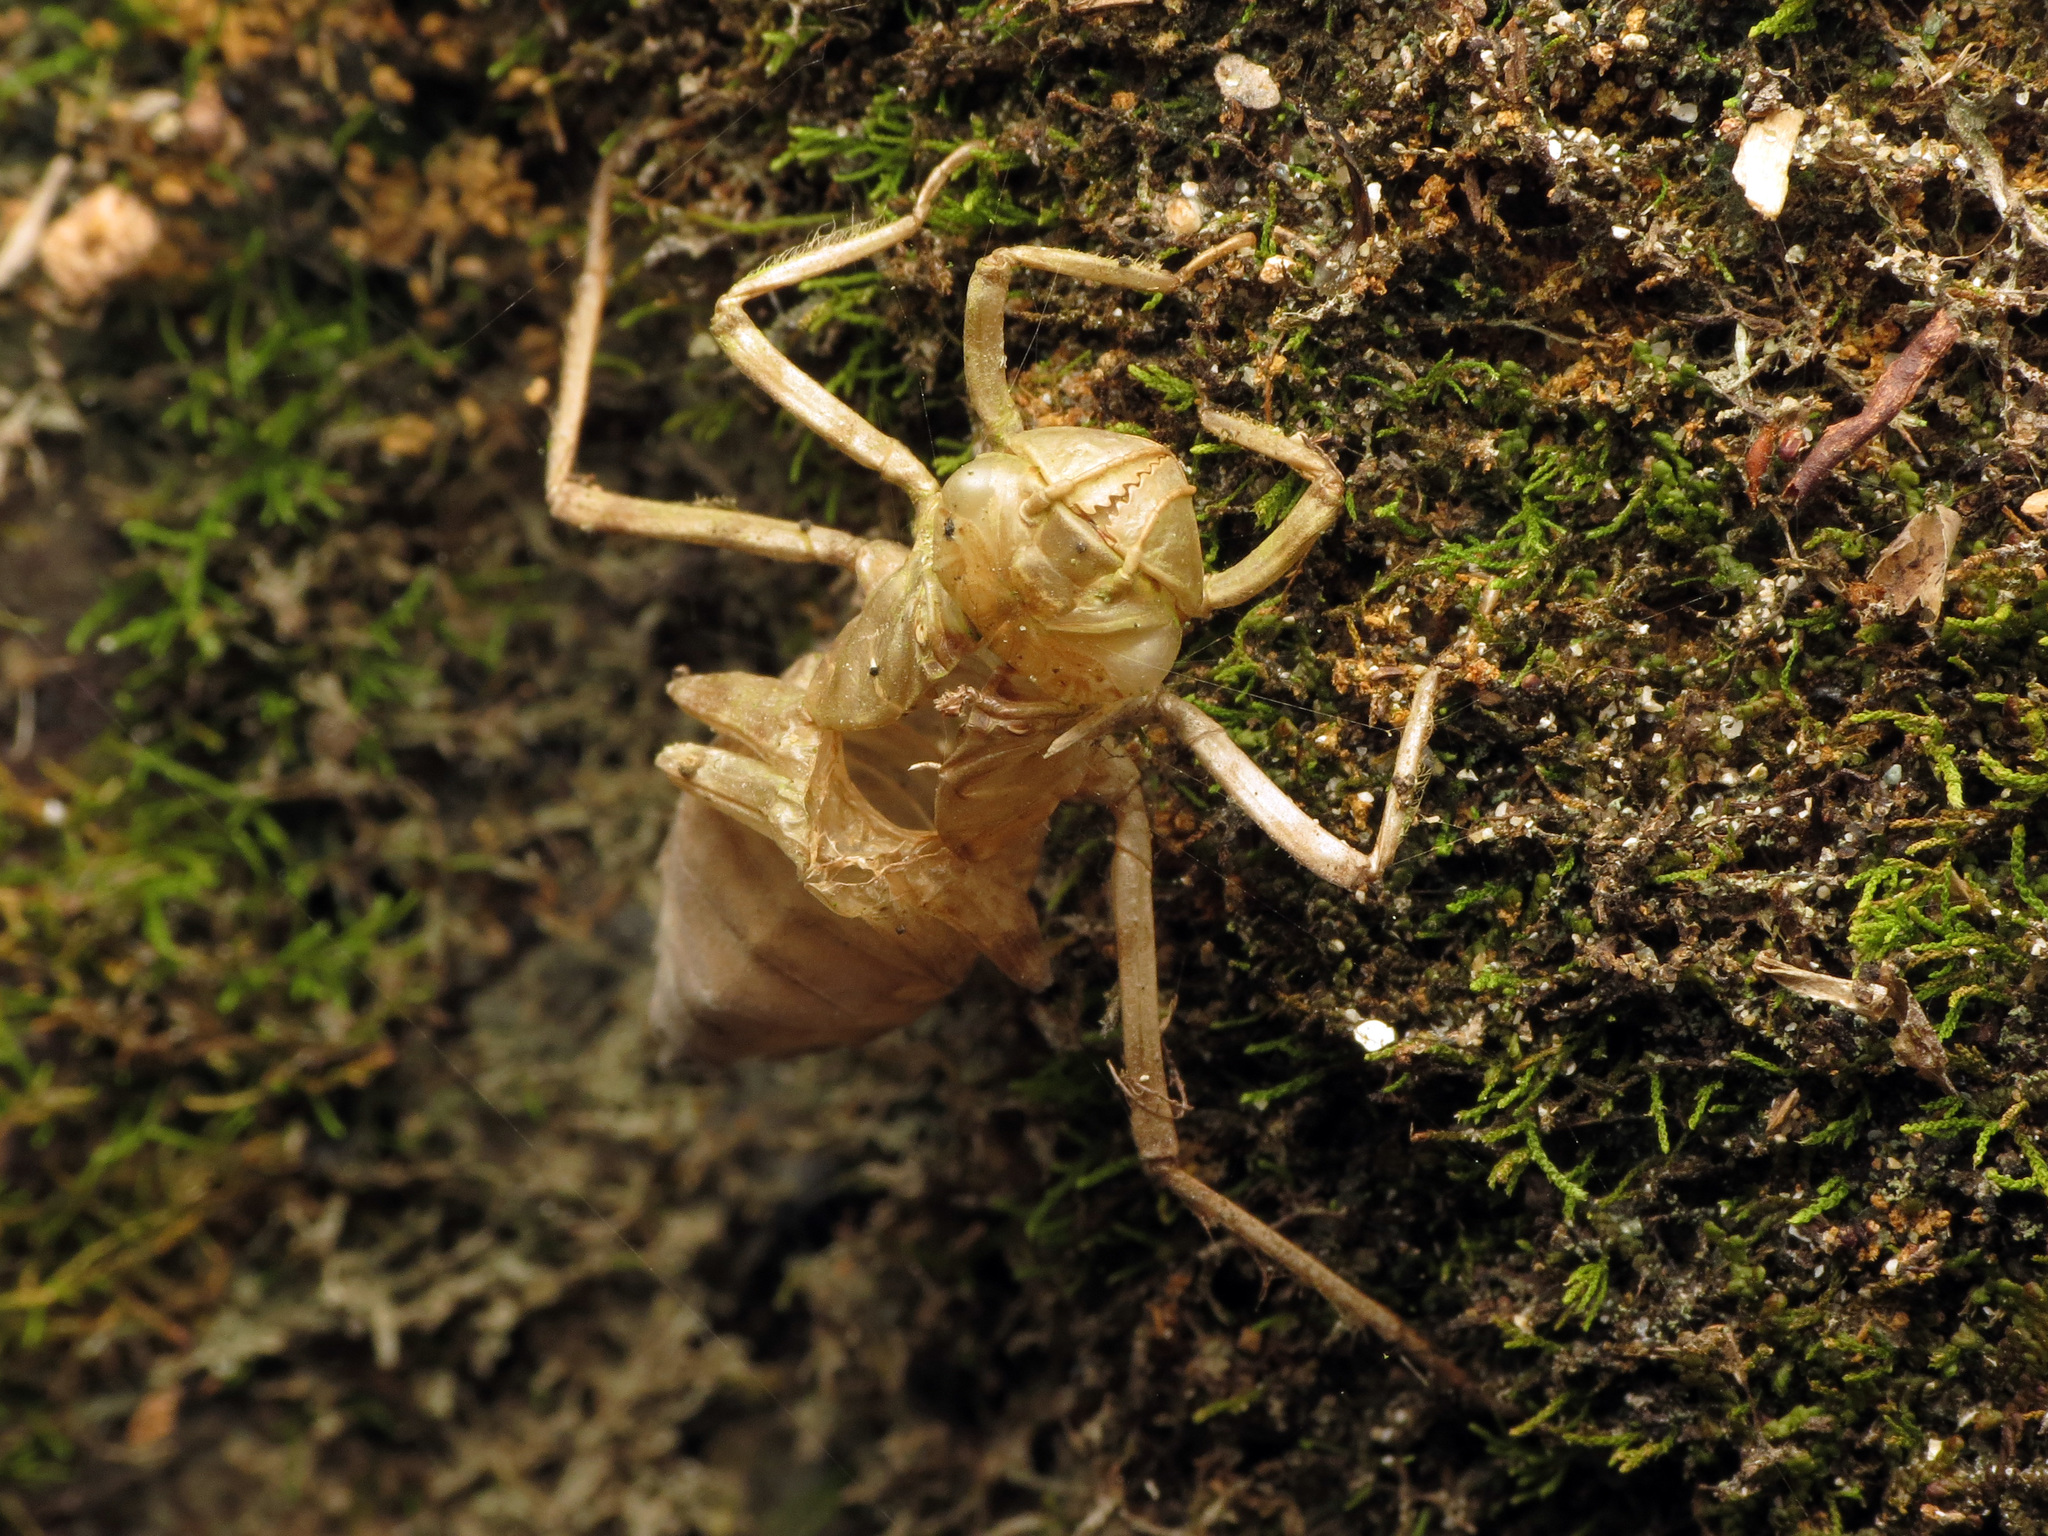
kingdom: Animalia
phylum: Arthropoda
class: Insecta
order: Odonata
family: Corduliidae
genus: Procordulia
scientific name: Procordulia smithii
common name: Ranger dragonfly
